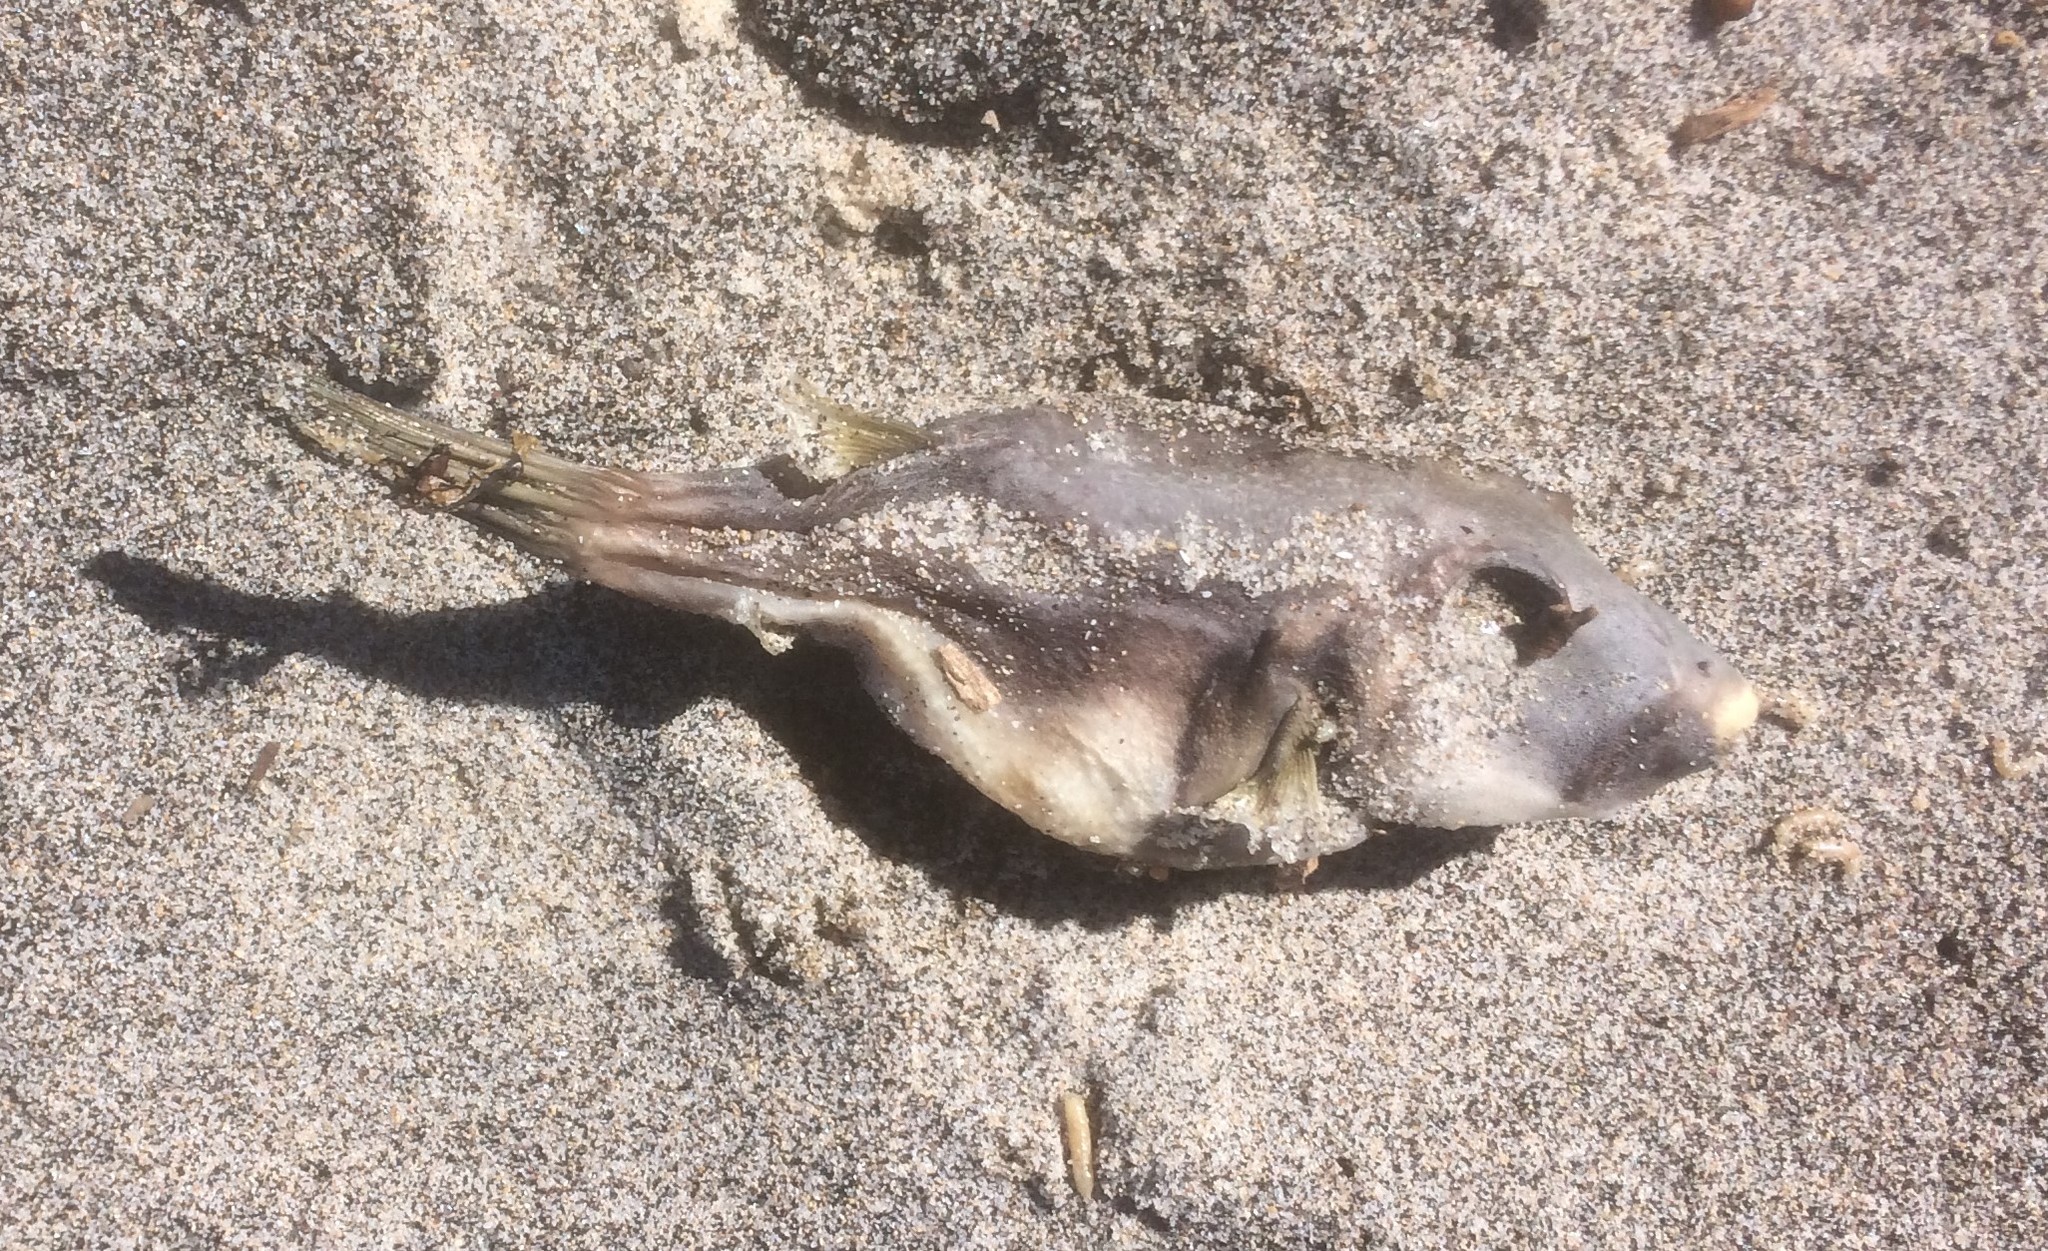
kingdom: Animalia
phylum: Chordata
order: Tetraodontiformes
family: Tetraodontidae
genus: Omegophora
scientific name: Omegophora armilla
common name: Ringed pufferfish
